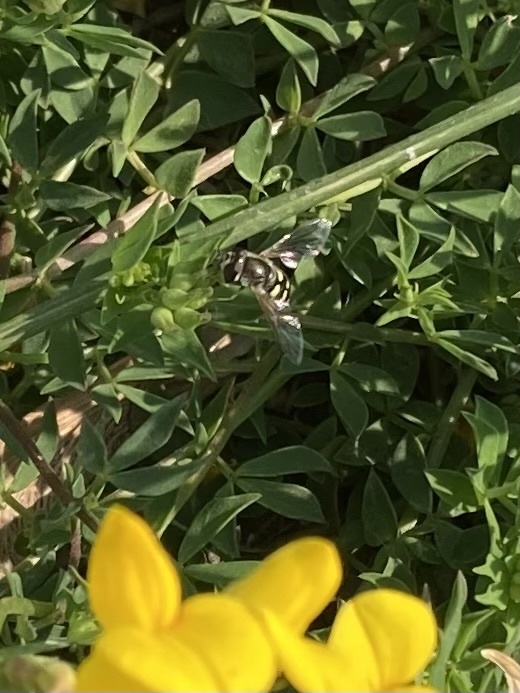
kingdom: Animalia
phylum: Arthropoda
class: Insecta
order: Diptera
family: Syrphidae
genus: Eupeodes
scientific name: Eupeodes volucris
